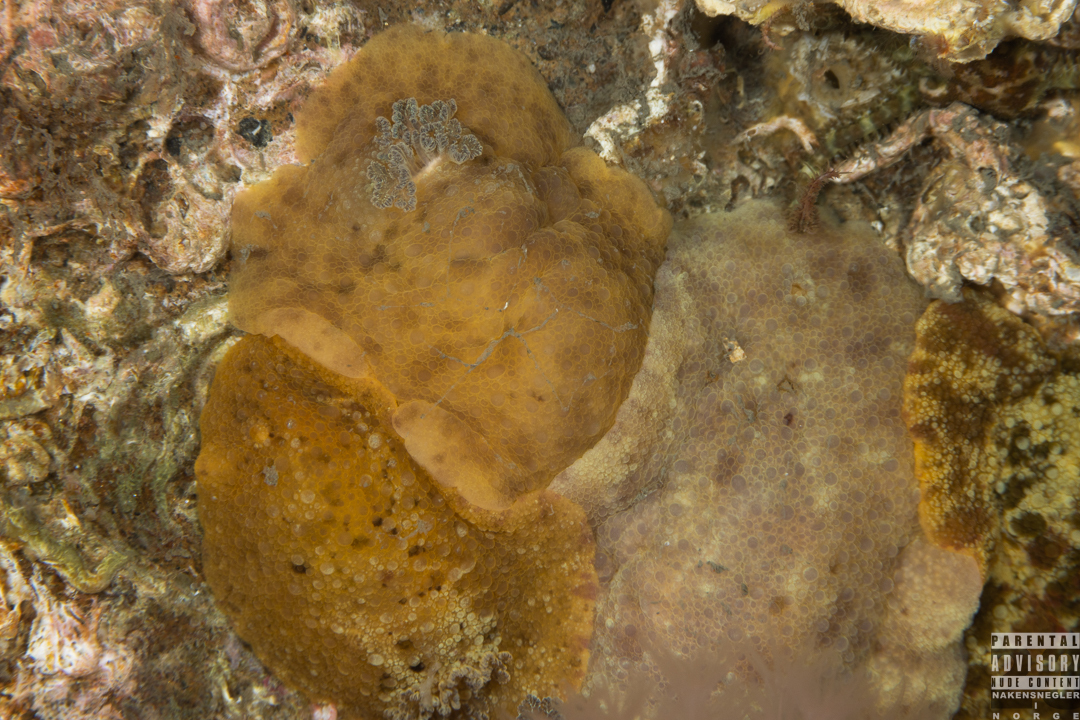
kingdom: Animalia
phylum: Mollusca
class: Gastropoda
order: Nudibranchia
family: Dorididae
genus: Doris
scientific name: Doris pseudoargus
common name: Sea lemon
